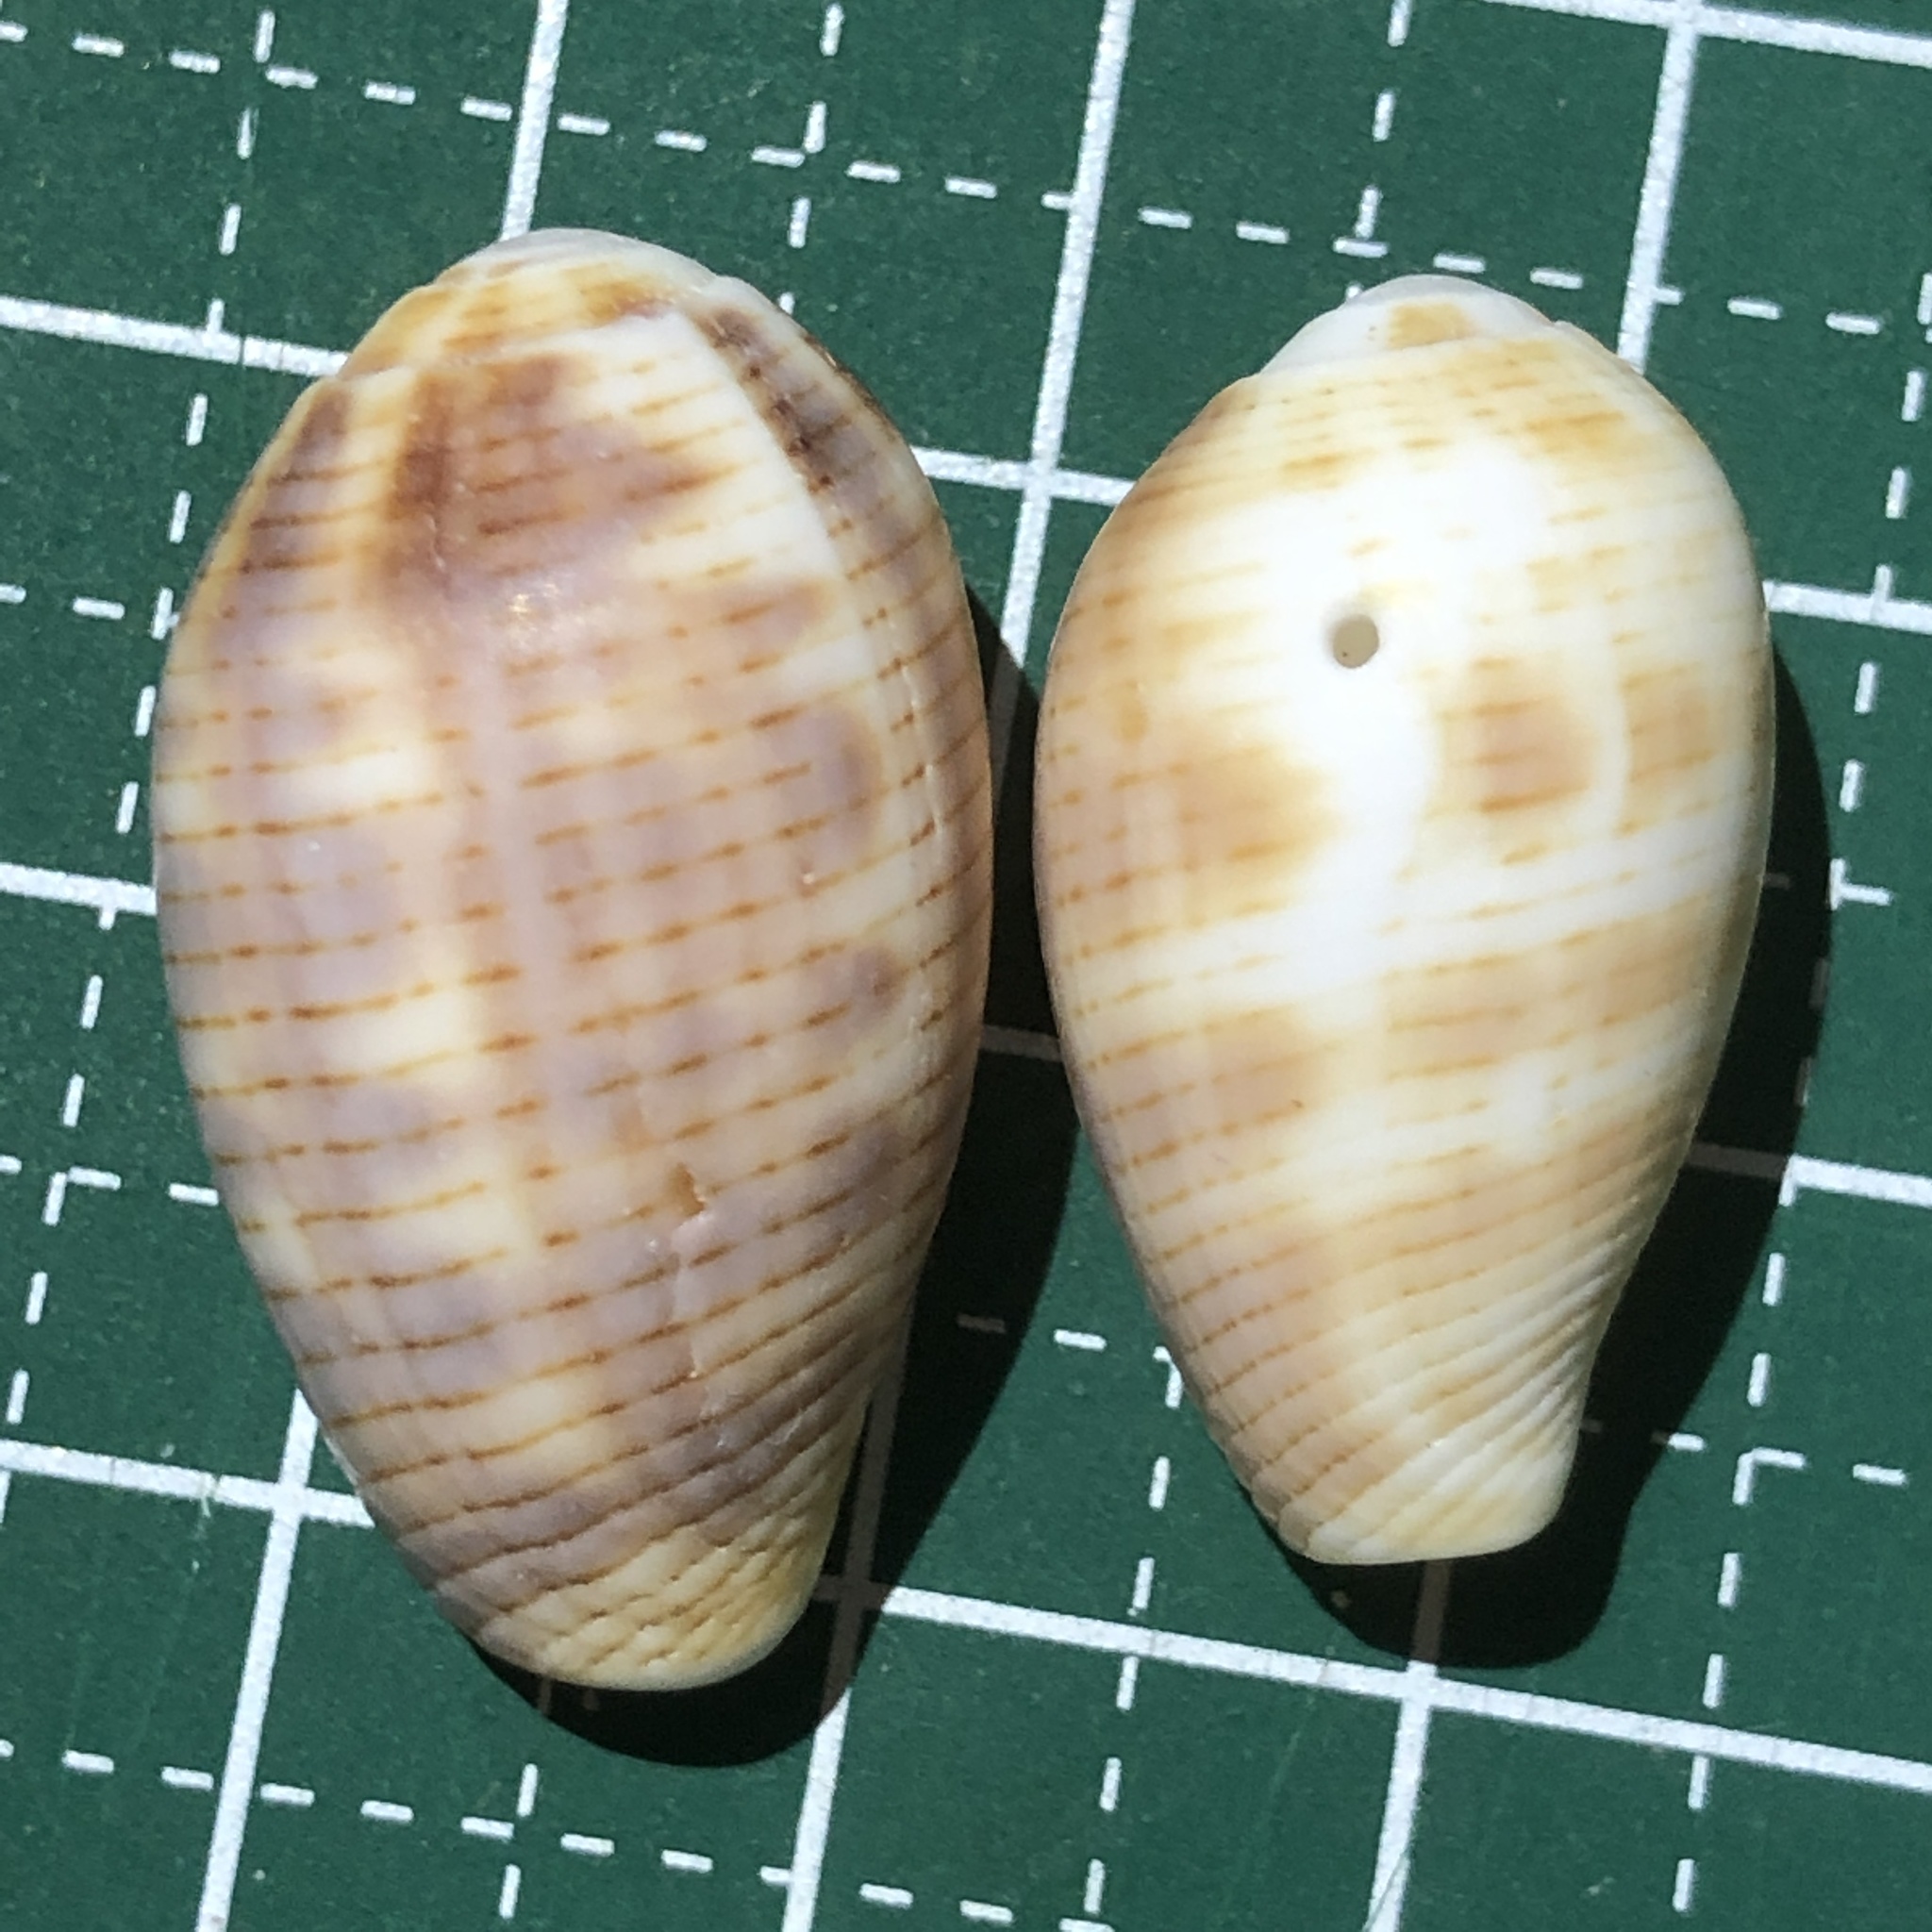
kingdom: Animalia
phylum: Mollusca
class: Gastropoda
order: Neogastropoda
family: Mitridae
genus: Pterygia
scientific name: Pterygia dactylus
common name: Finger miter
